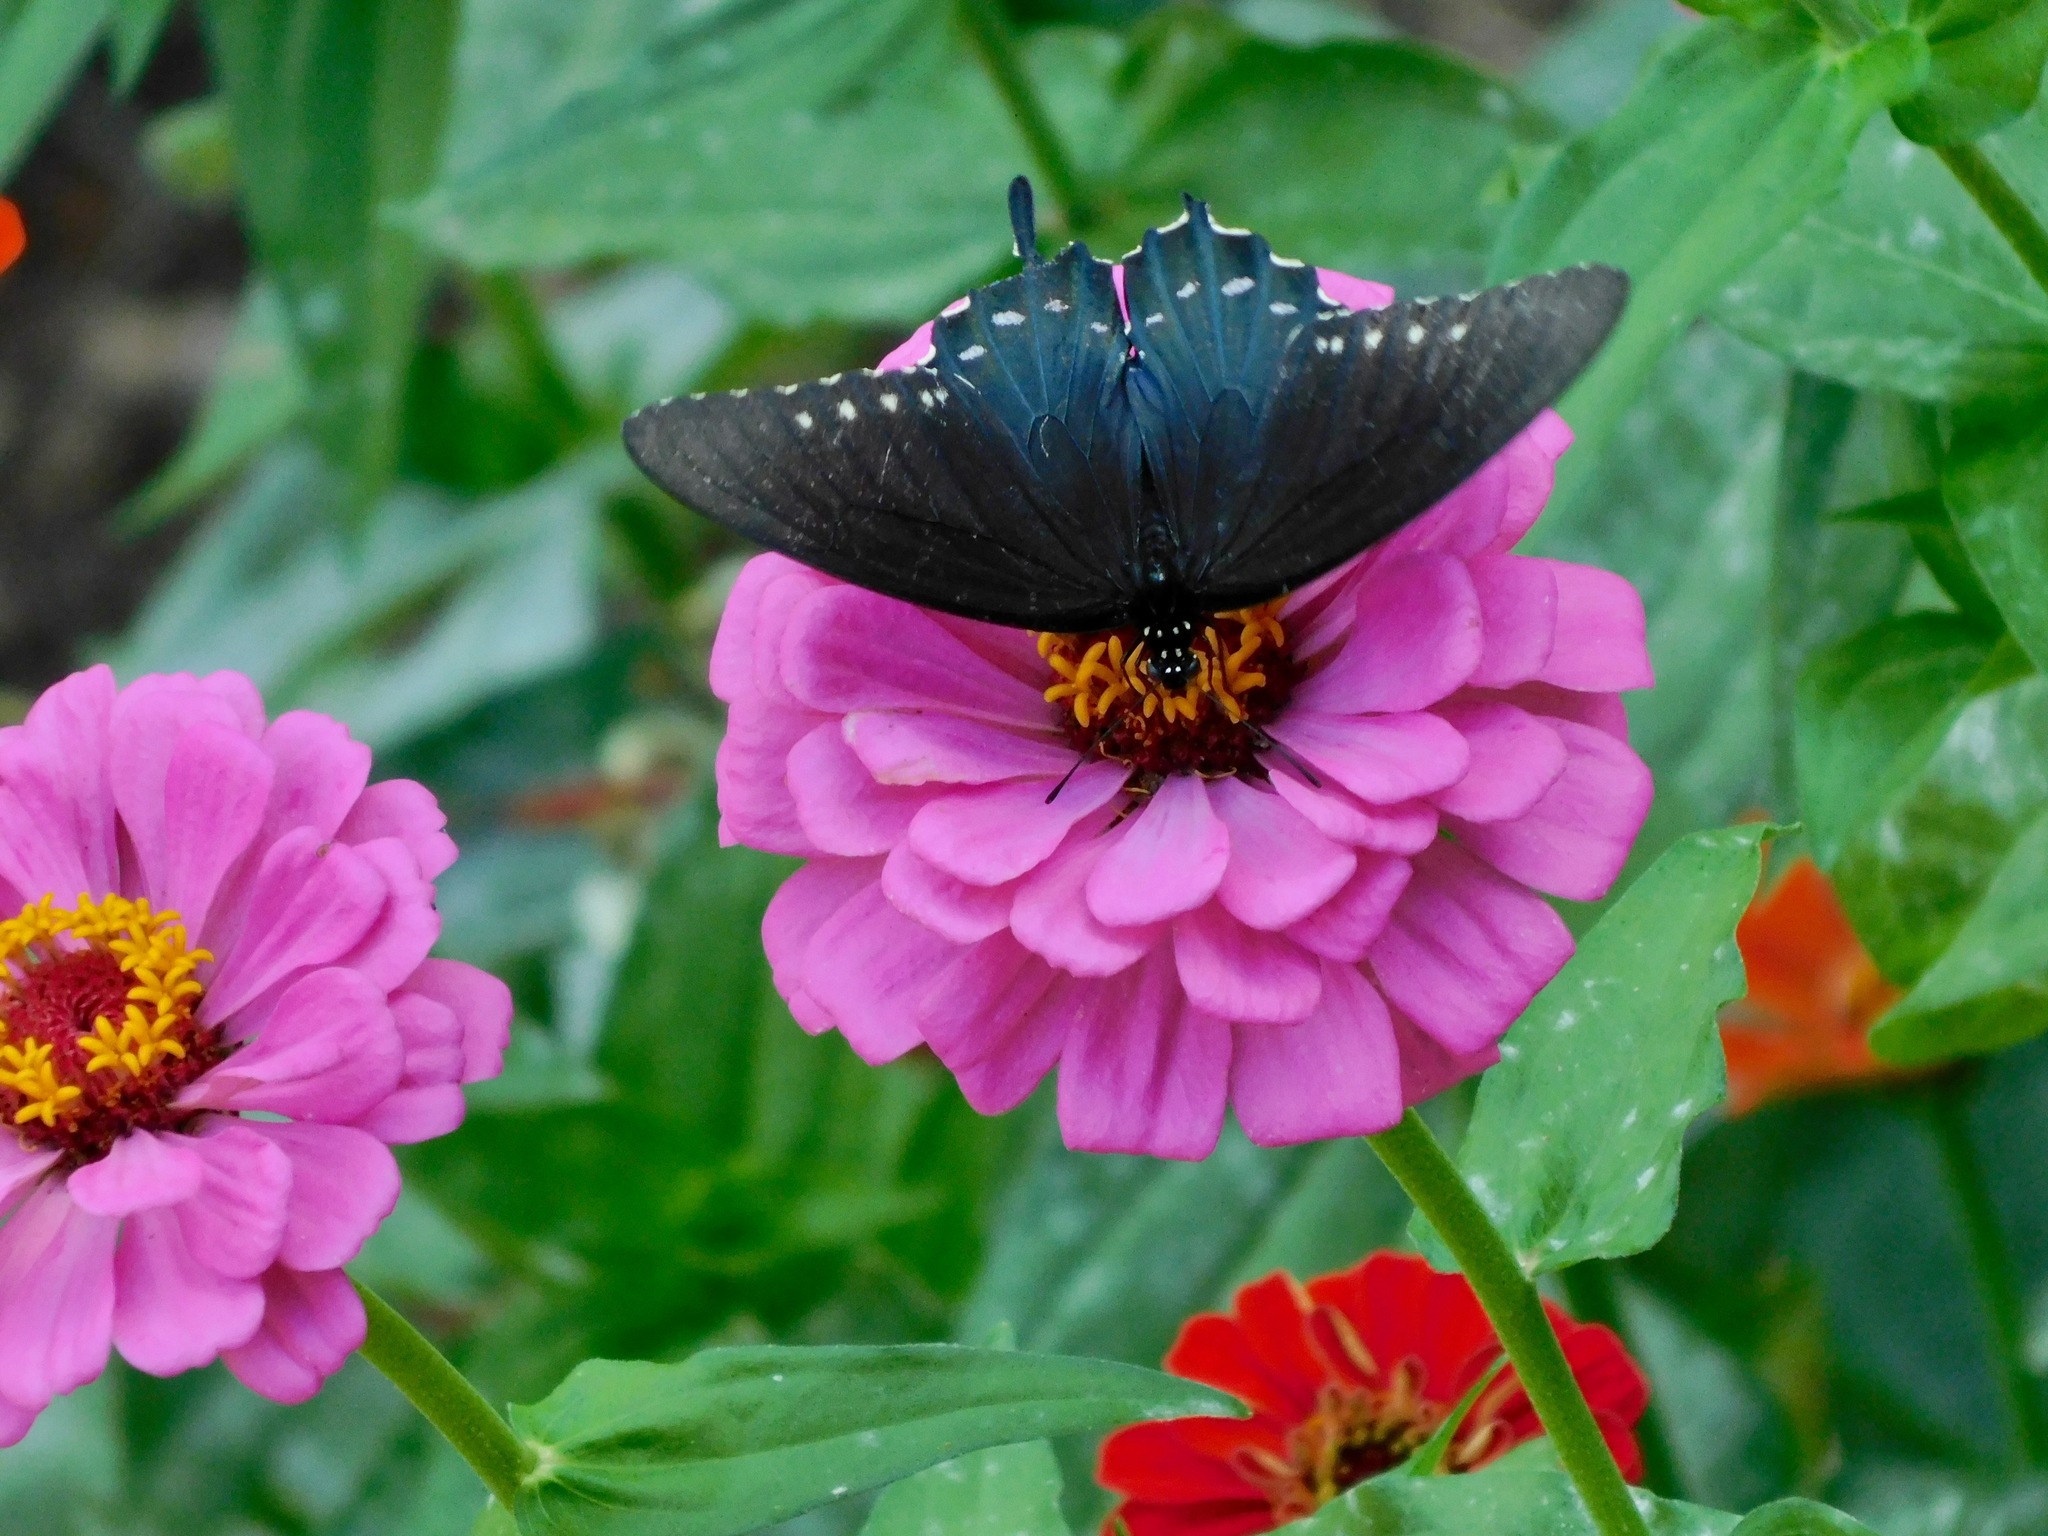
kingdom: Animalia
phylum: Arthropoda
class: Insecta
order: Lepidoptera
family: Papilionidae
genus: Battus
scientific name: Battus philenor
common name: Pipevine swallowtail
